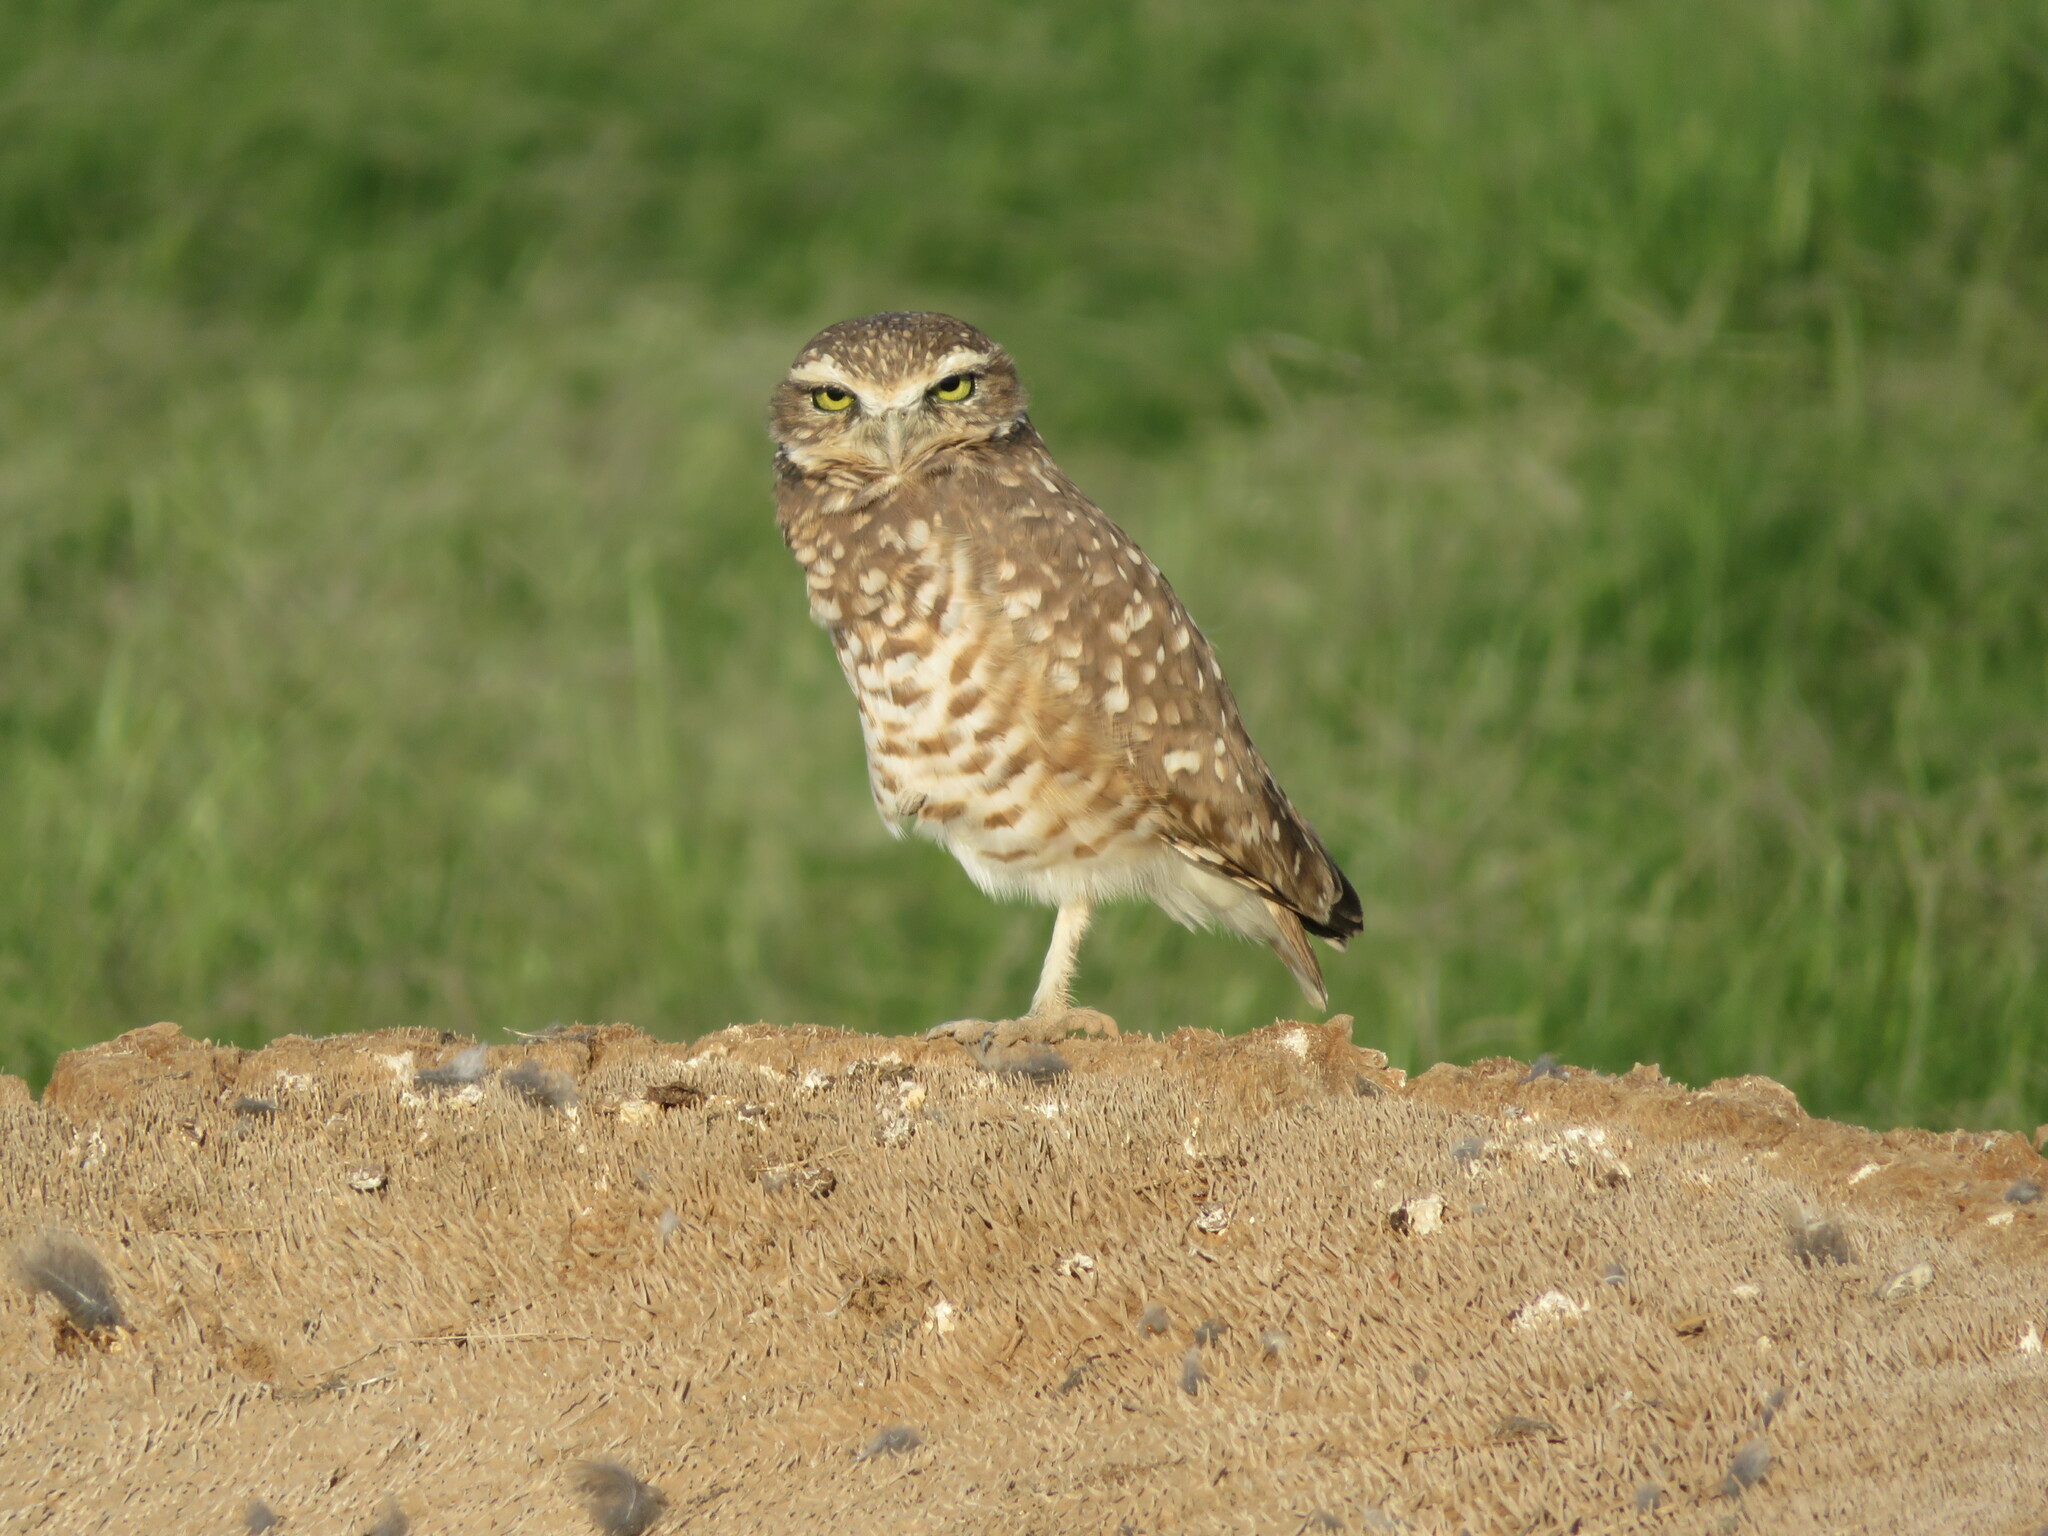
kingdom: Animalia
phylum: Chordata
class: Aves
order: Strigiformes
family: Strigidae
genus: Athene
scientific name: Athene cunicularia
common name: Burrowing owl
